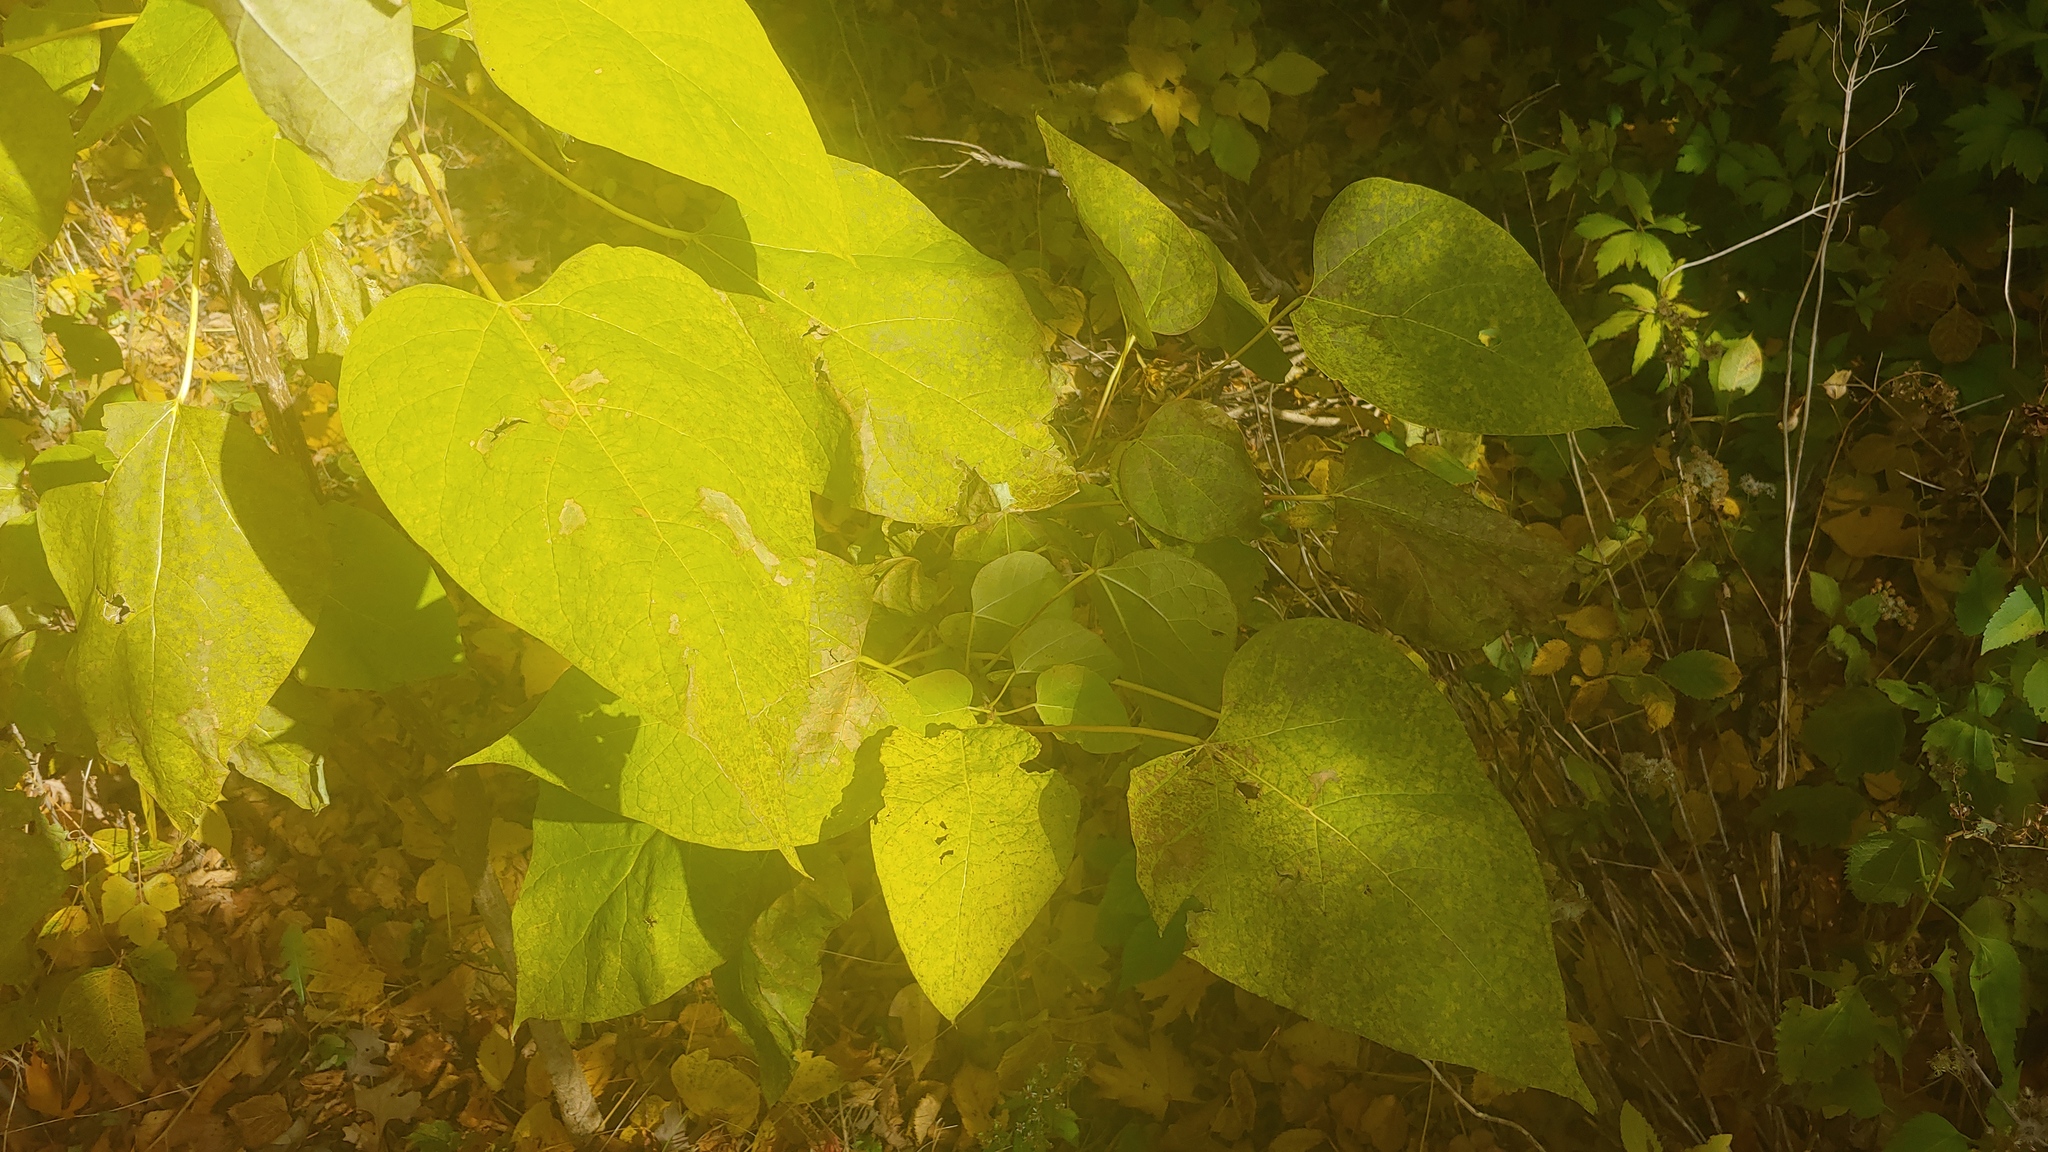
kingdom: Plantae
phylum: Tracheophyta
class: Magnoliopsida
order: Lamiales
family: Bignoniaceae
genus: Catalpa
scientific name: Catalpa bignonioides
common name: Southern catalpa
